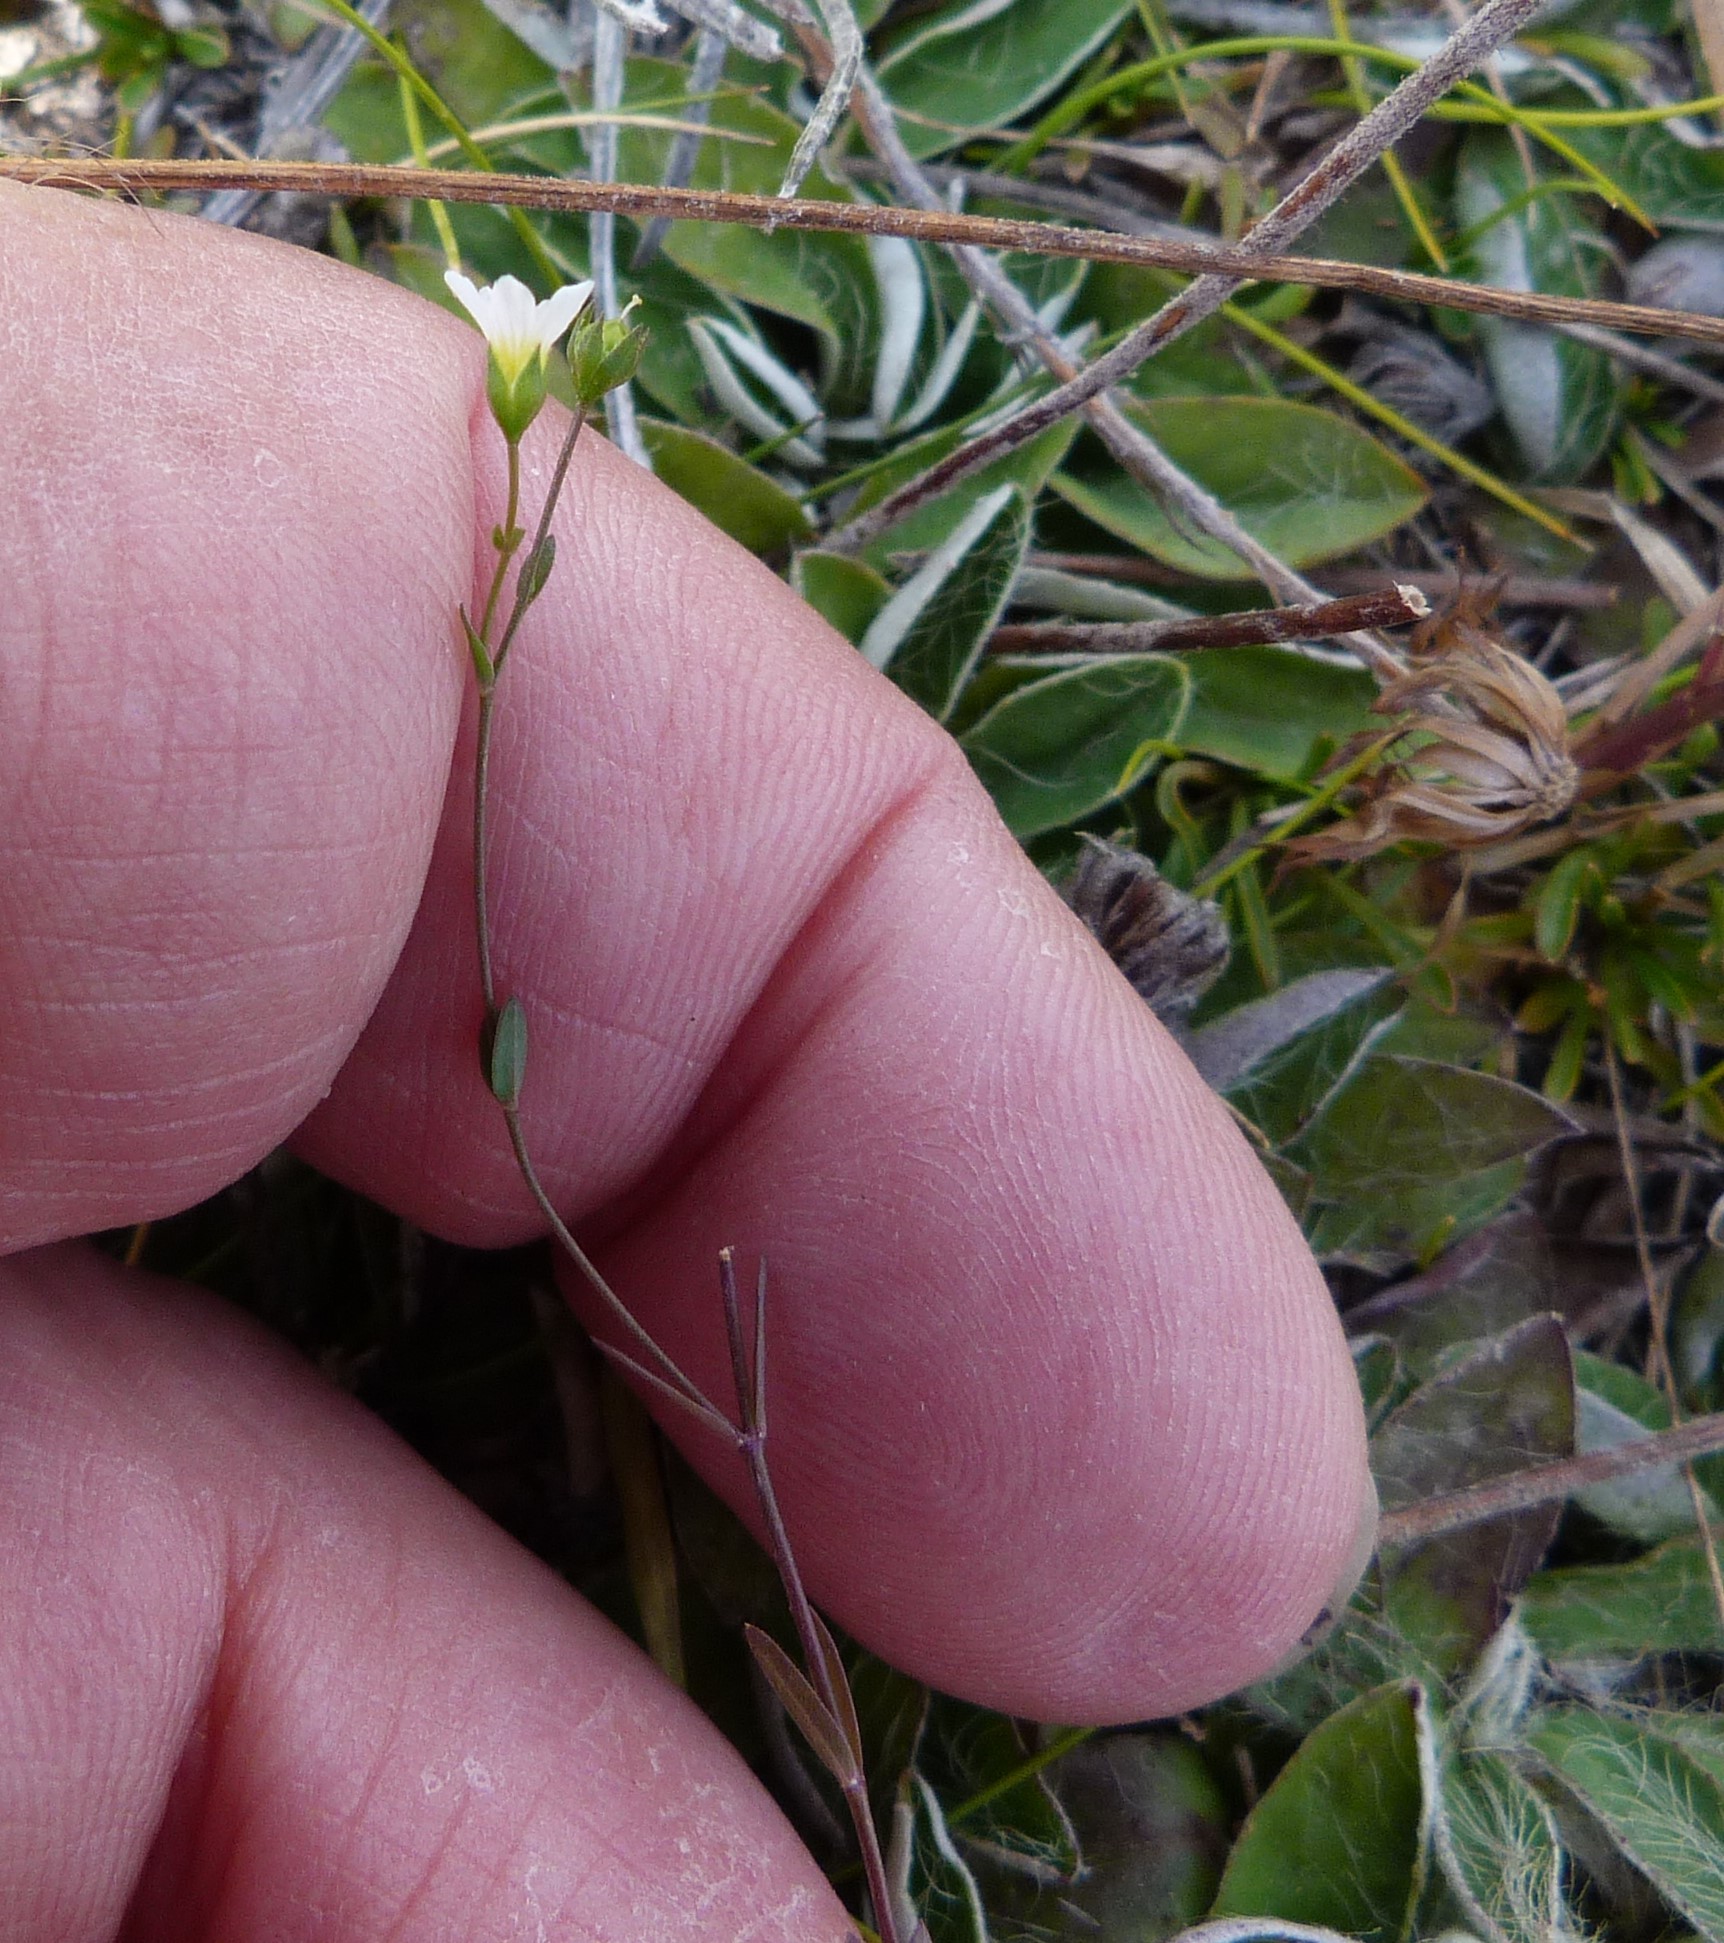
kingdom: Plantae
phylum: Tracheophyta
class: Magnoliopsida
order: Malpighiales
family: Linaceae
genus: Linum
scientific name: Linum catharticum
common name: Fairy flax
